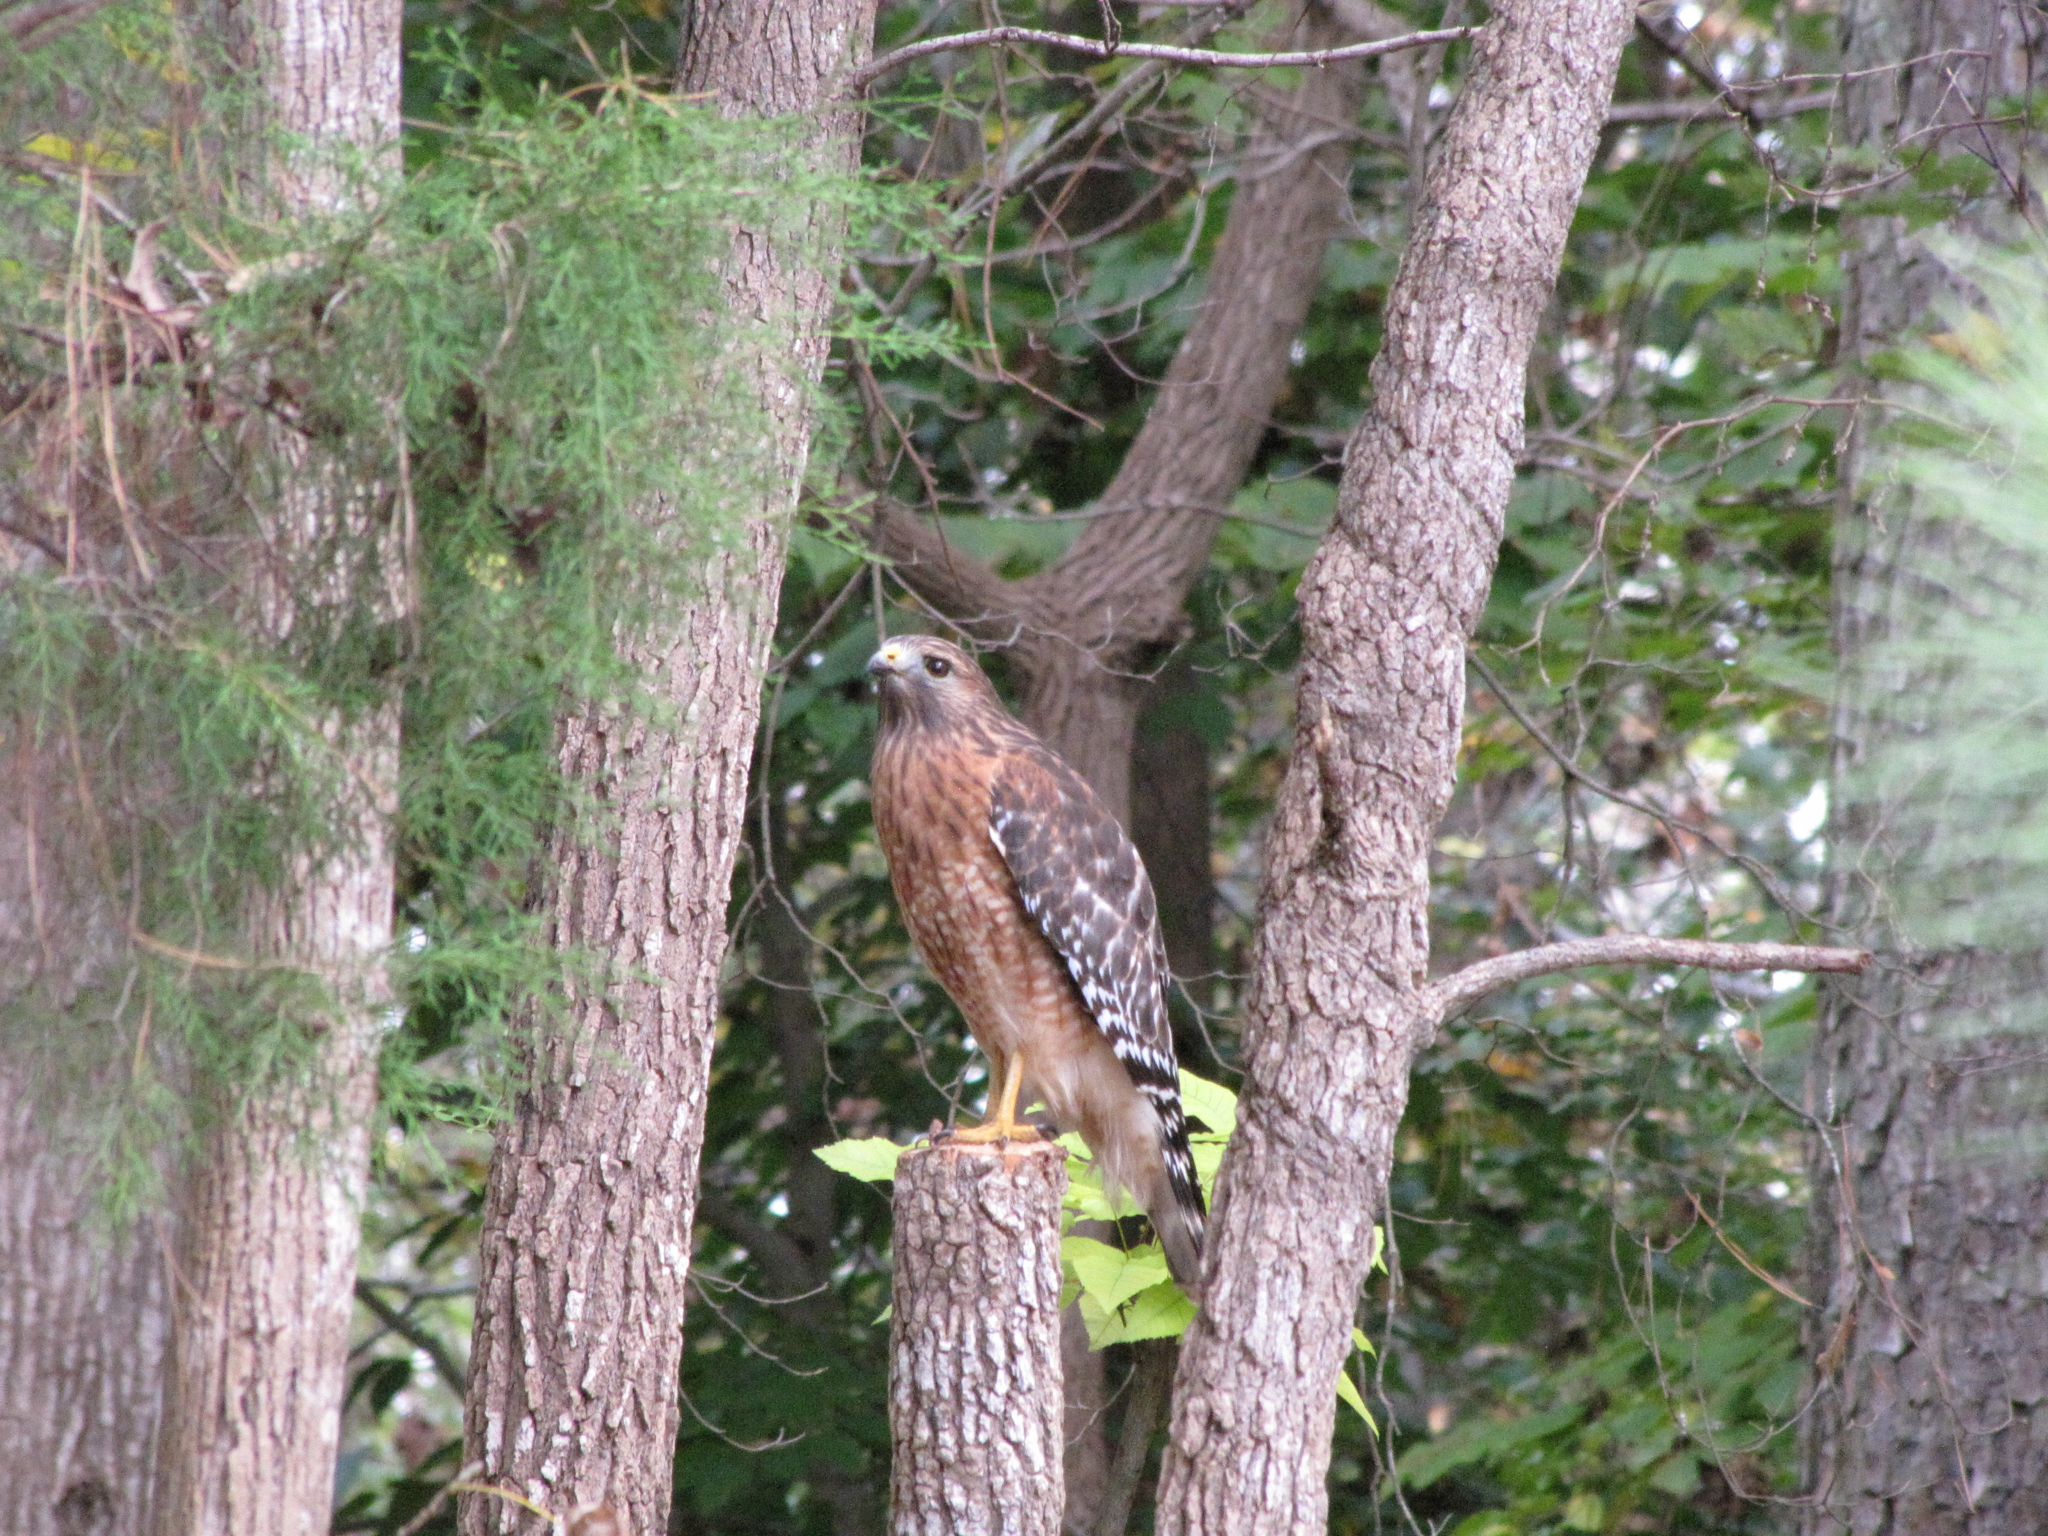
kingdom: Animalia
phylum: Chordata
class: Aves
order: Accipitriformes
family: Accipitridae
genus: Buteo
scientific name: Buteo lineatus
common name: Red-shouldered hawk
